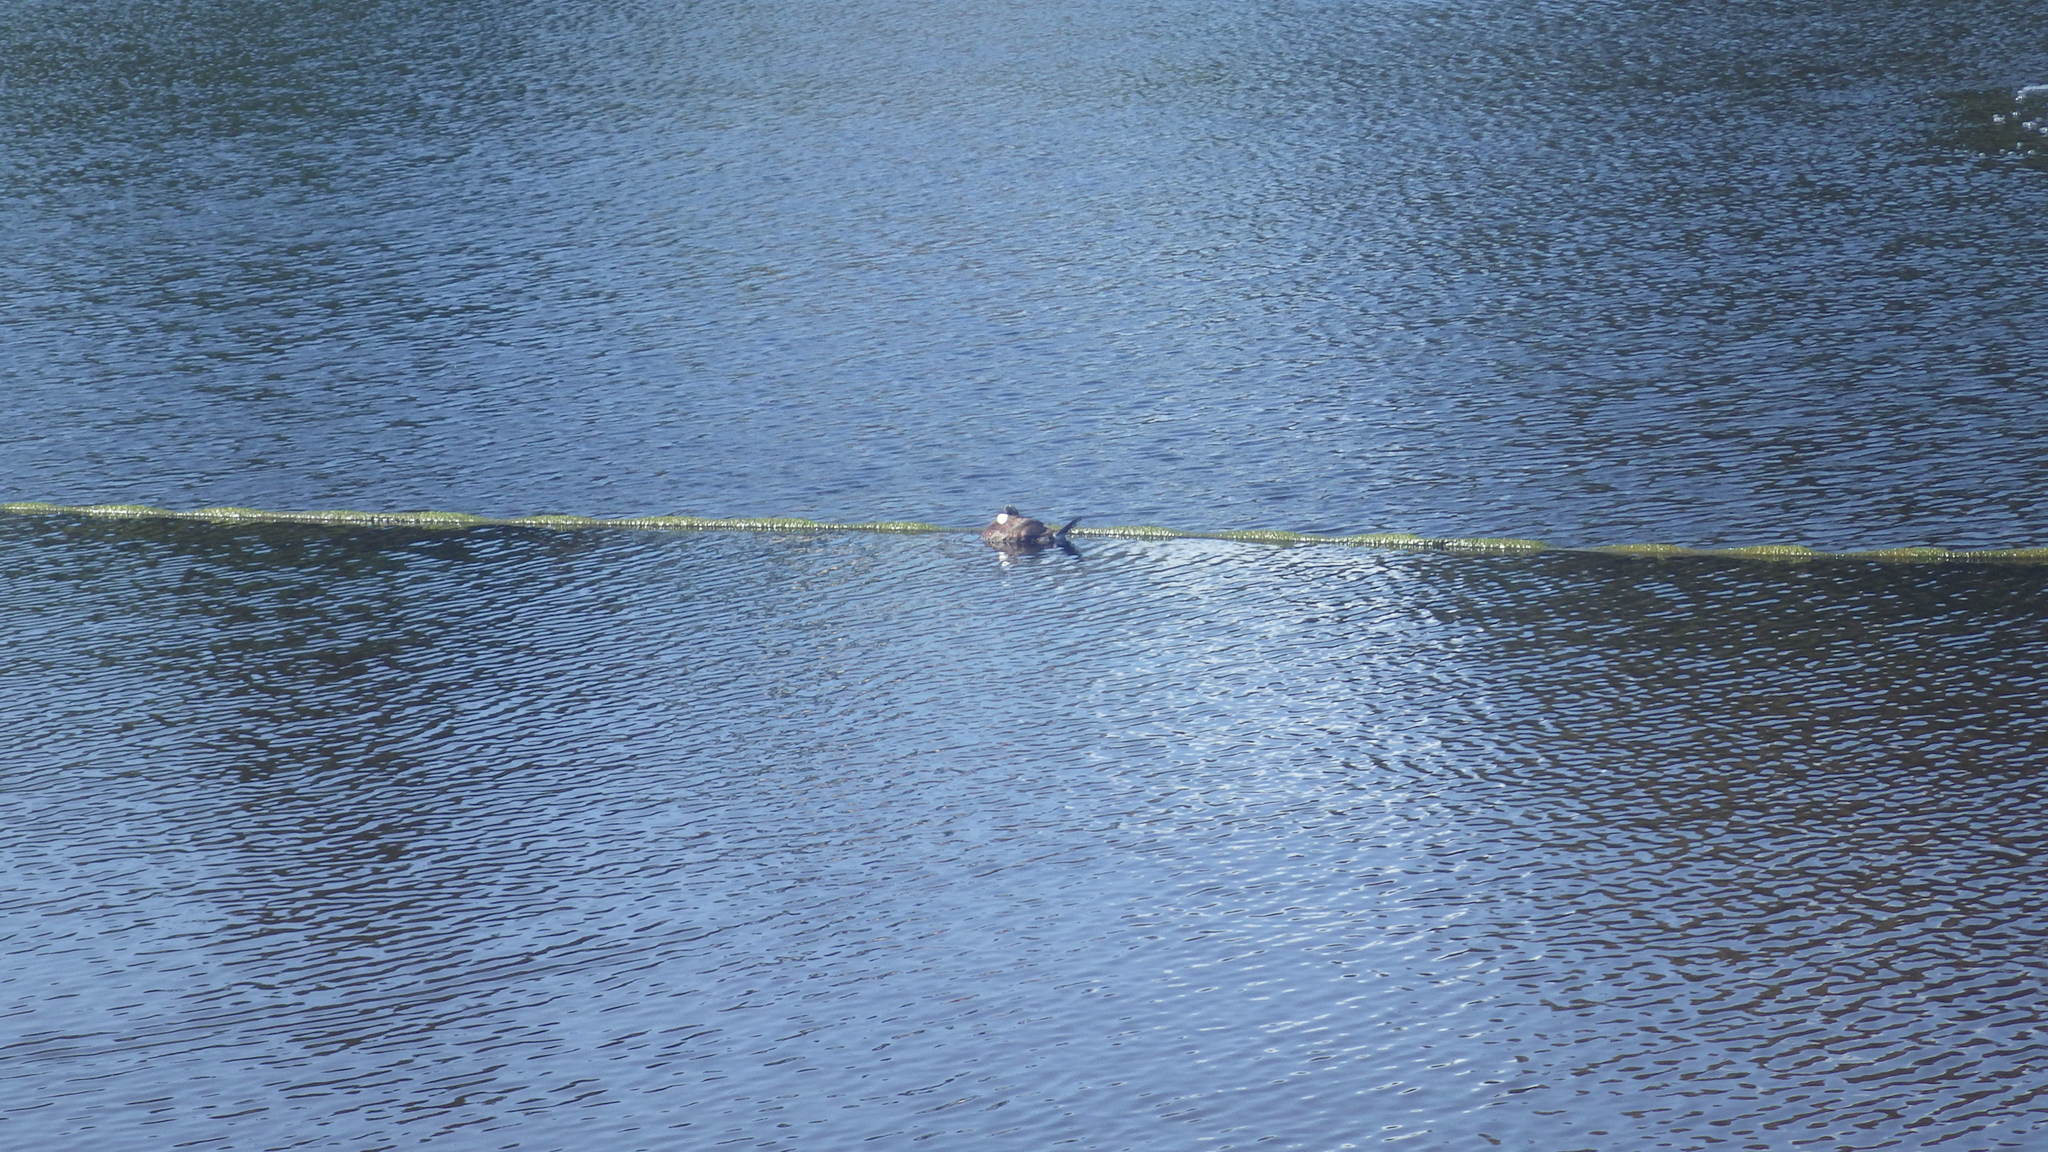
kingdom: Animalia
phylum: Chordata
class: Aves
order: Anseriformes
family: Anatidae
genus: Oxyura
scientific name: Oxyura jamaicensis
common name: Ruddy duck
